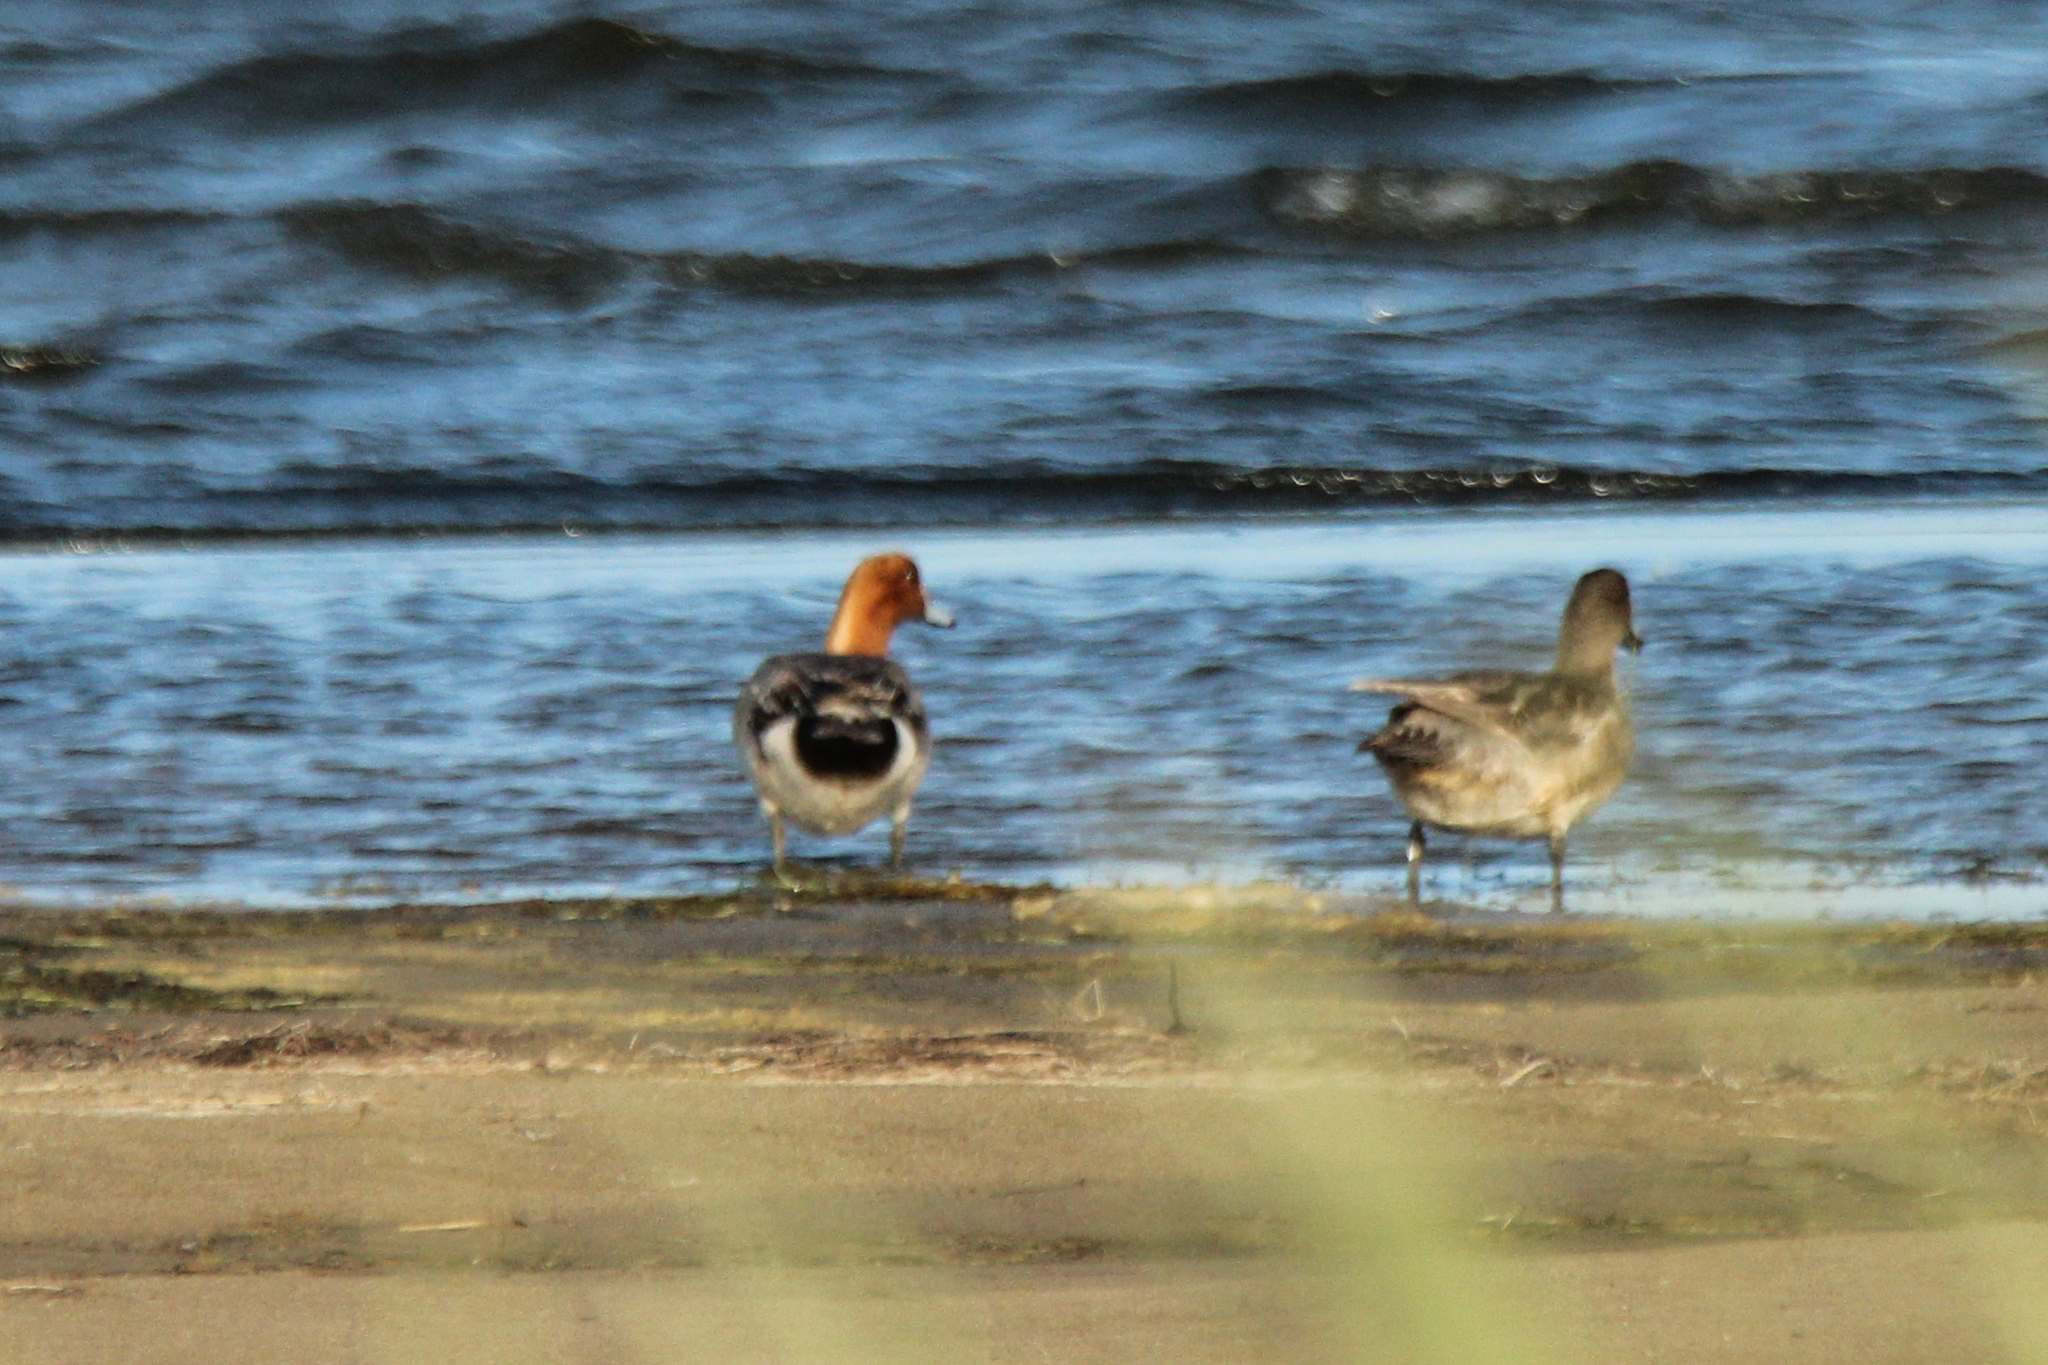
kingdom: Animalia
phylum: Chordata
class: Aves
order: Anseriformes
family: Anatidae
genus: Mareca
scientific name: Mareca penelope
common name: Eurasian wigeon
